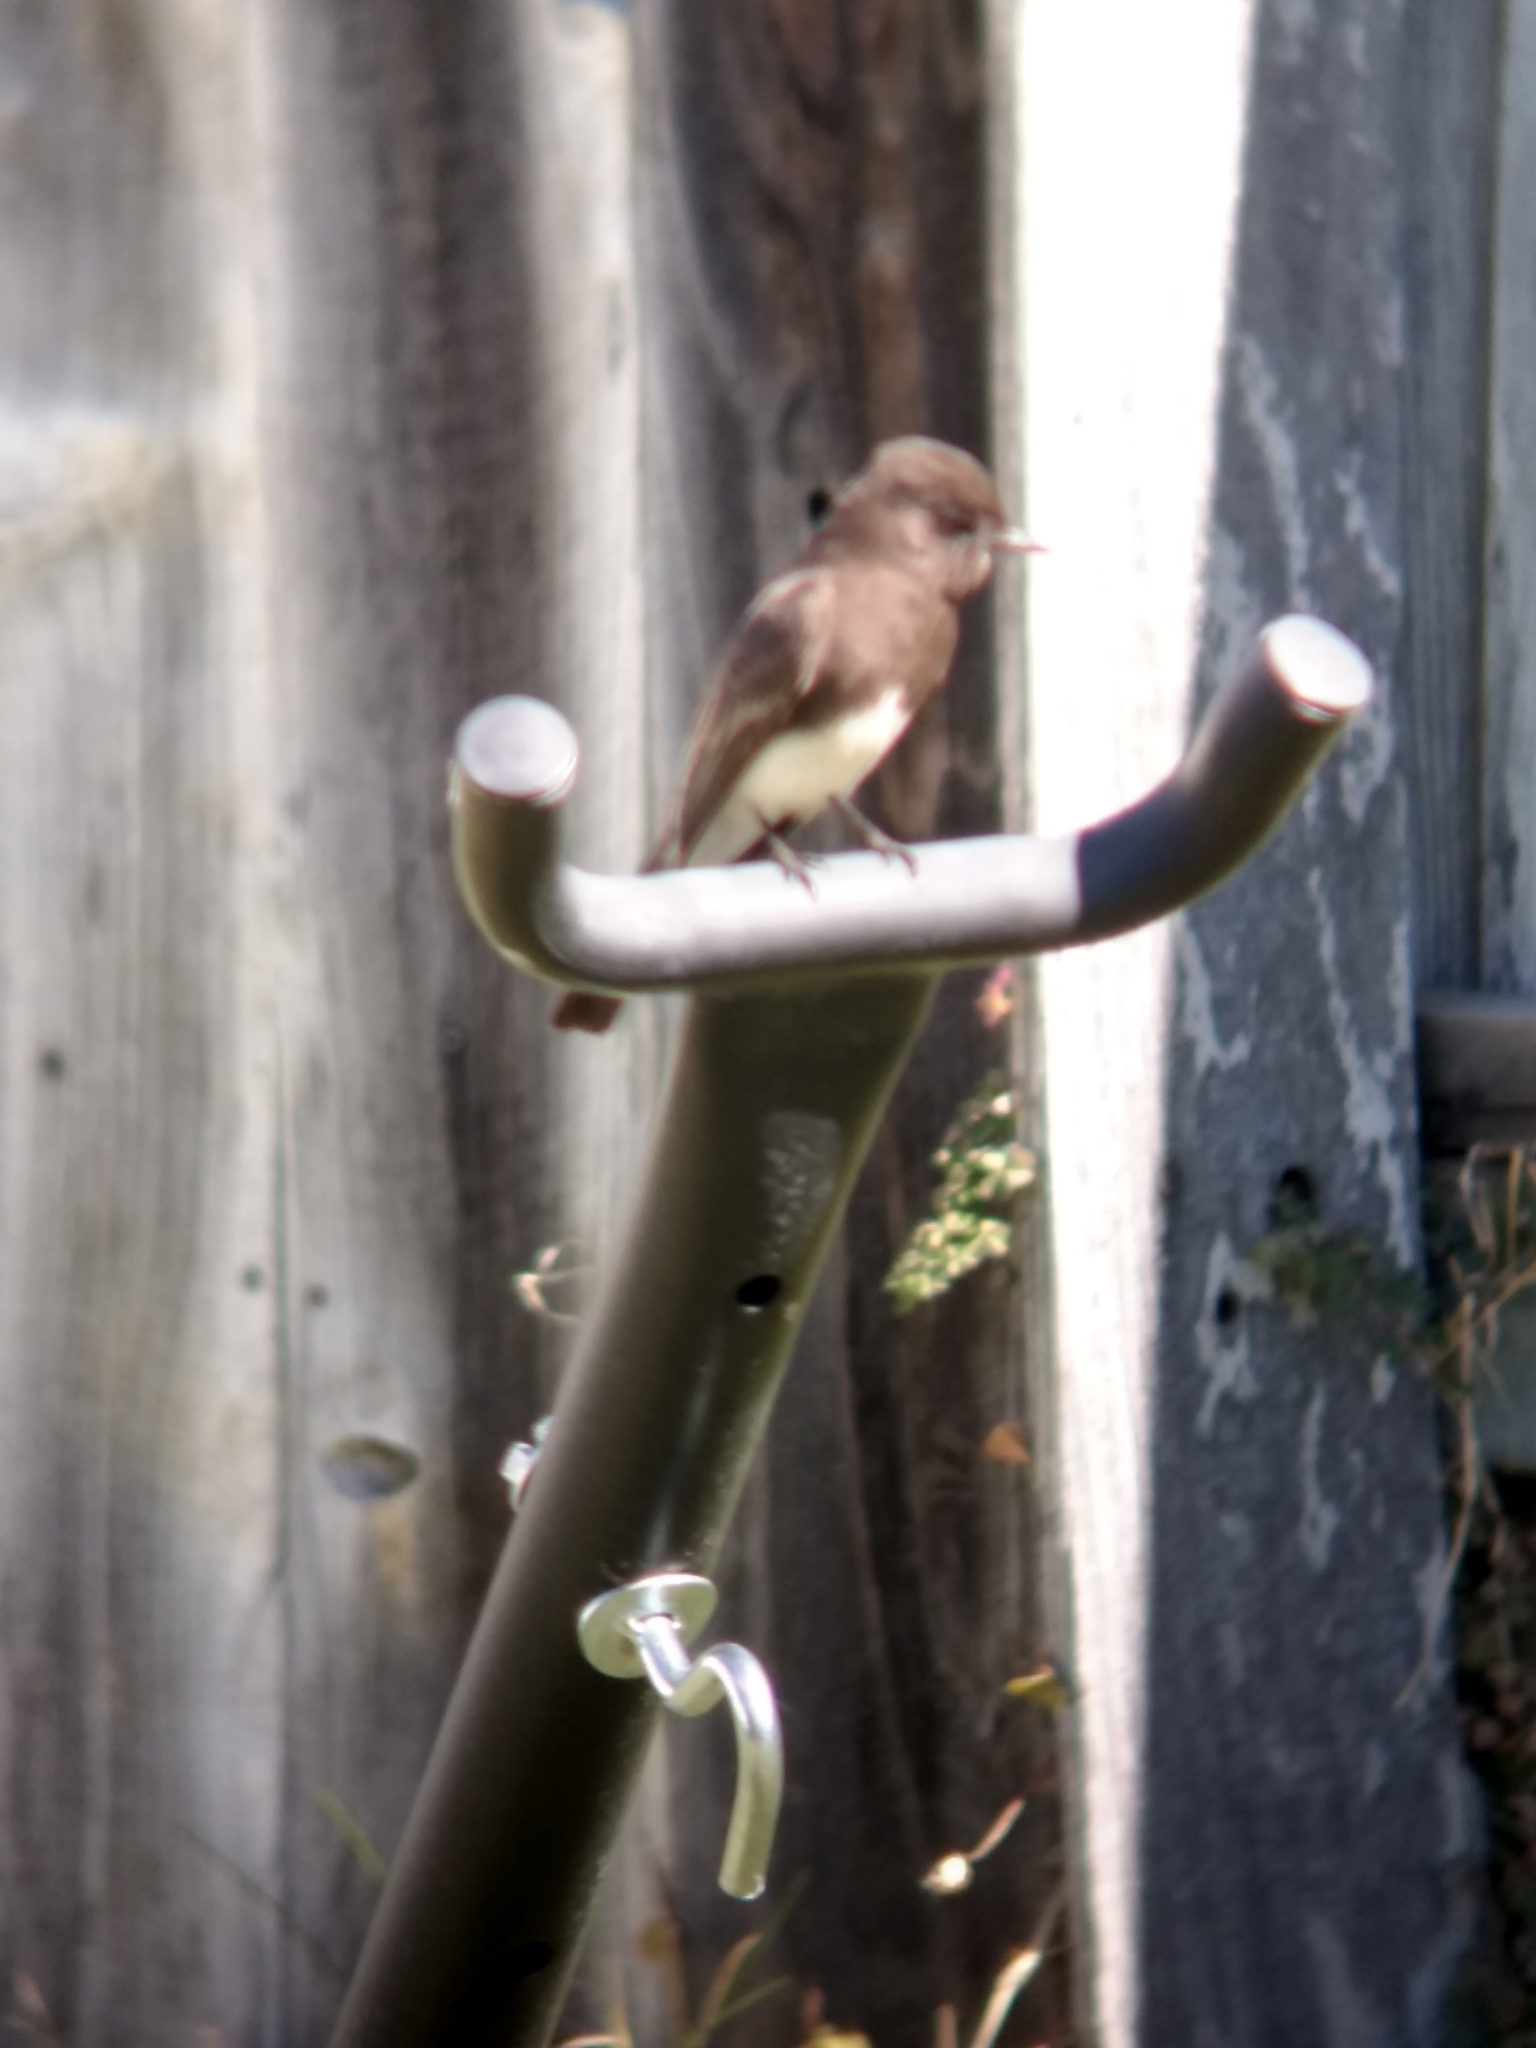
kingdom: Animalia
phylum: Chordata
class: Aves
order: Passeriformes
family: Tyrannidae
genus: Sayornis
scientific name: Sayornis nigricans
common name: Black phoebe
